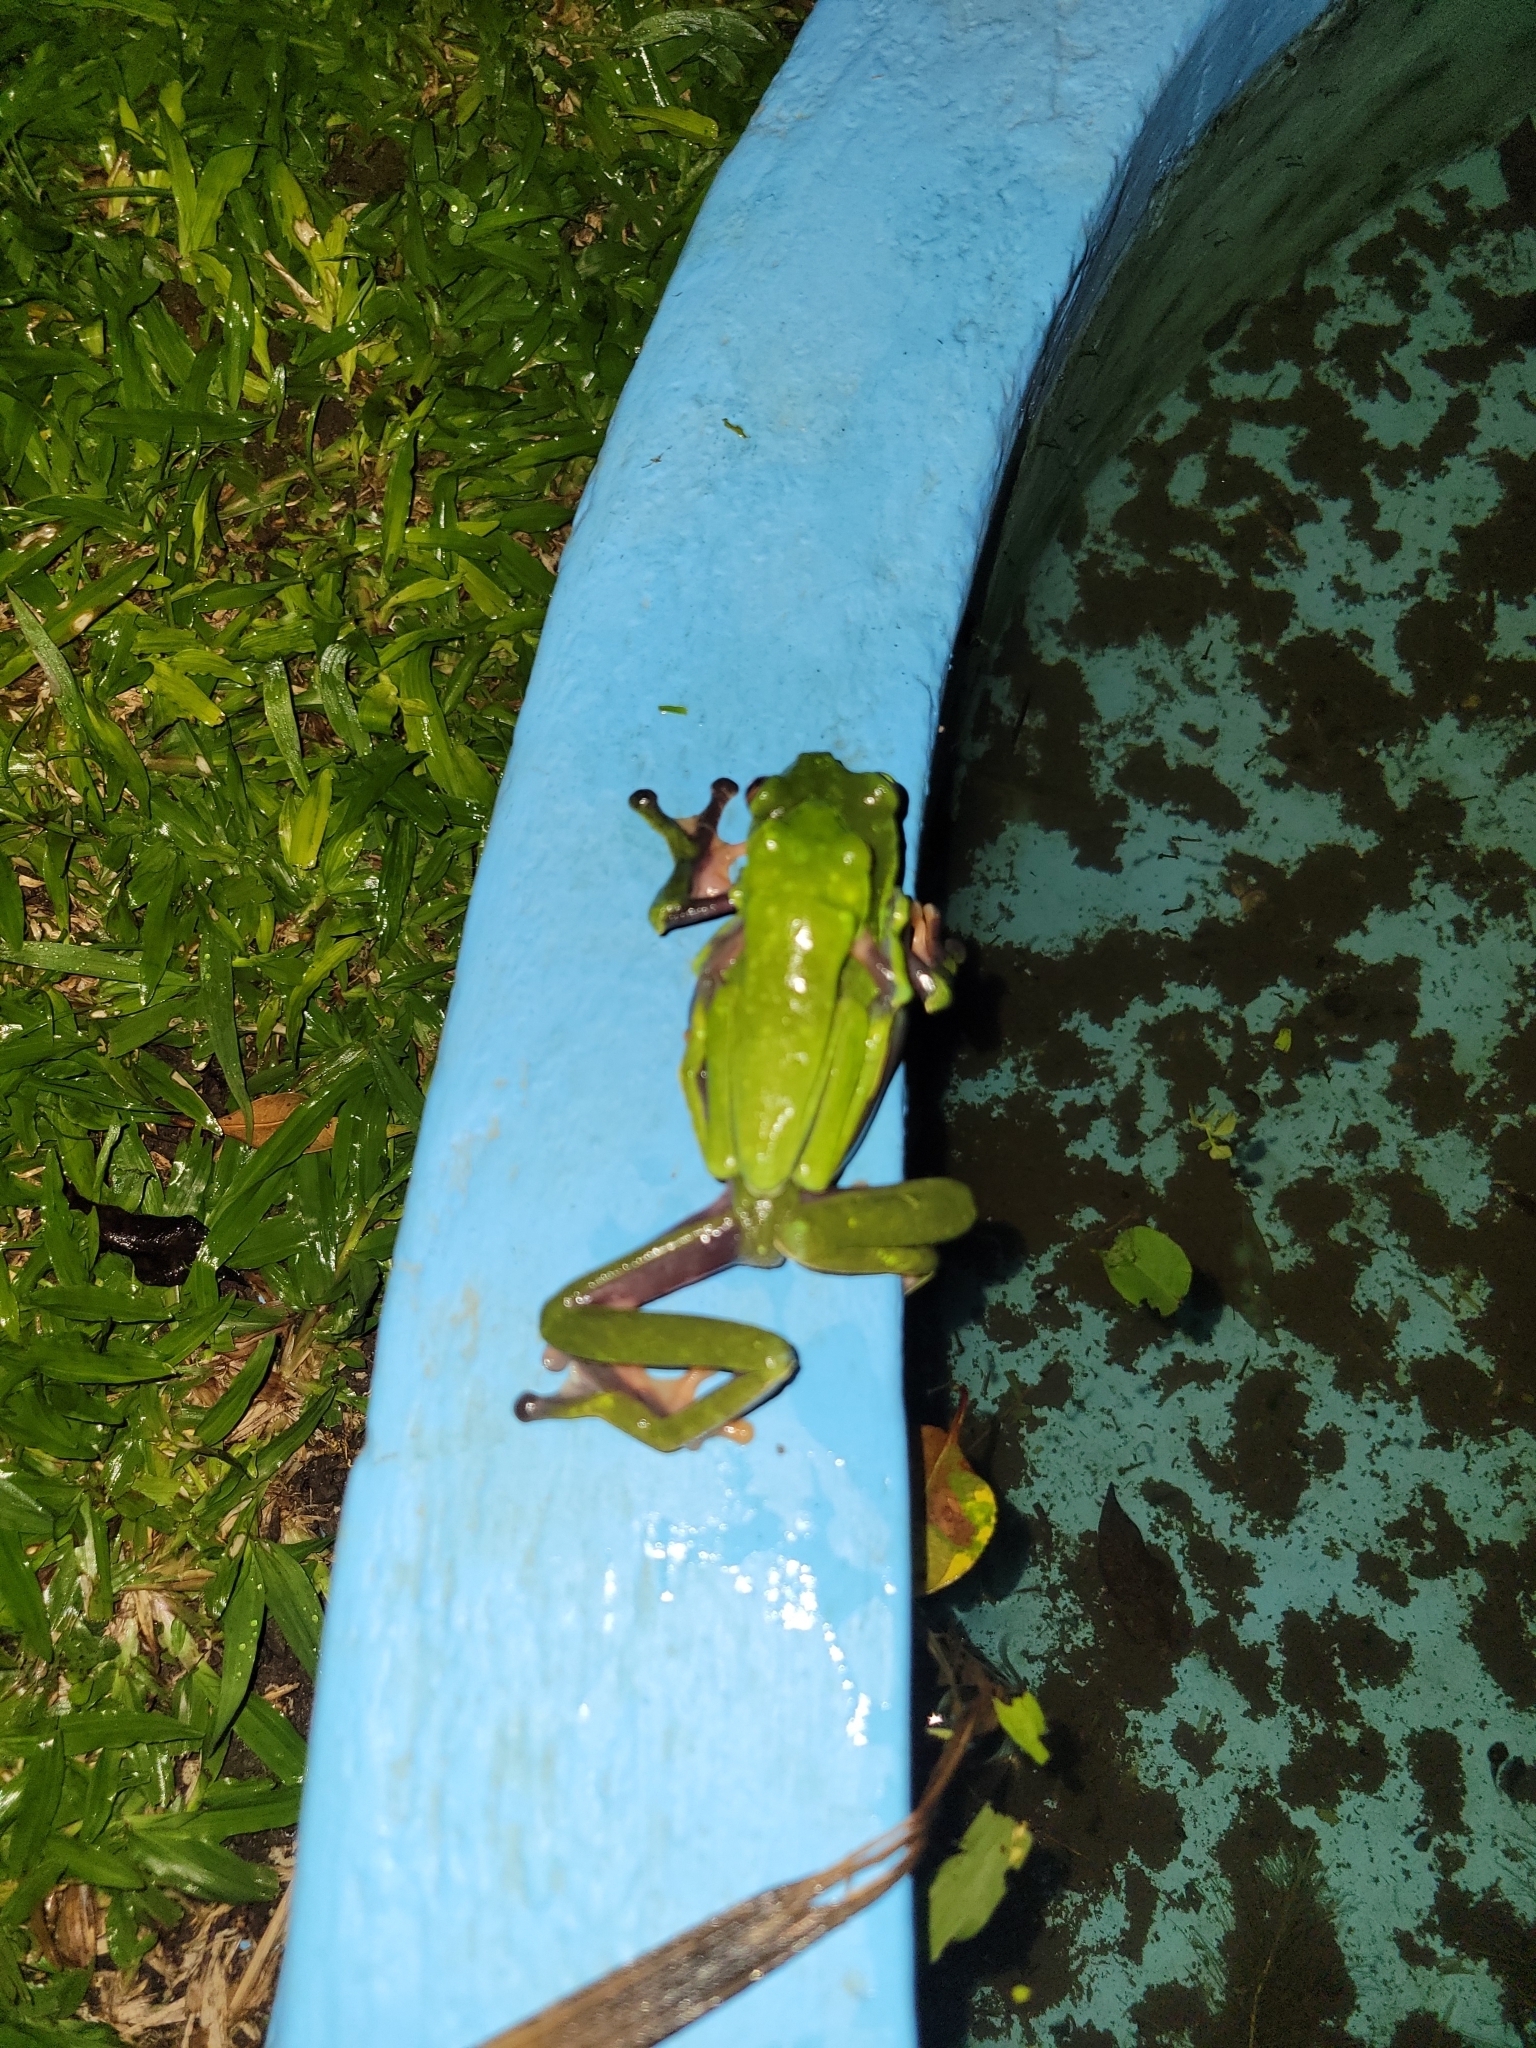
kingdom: Animalia
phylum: Chordata
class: Amphibia
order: Anura
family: Phyllomedusidae
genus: Agalychnis
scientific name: Agalychnis annae
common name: Blue-sided treefrog
